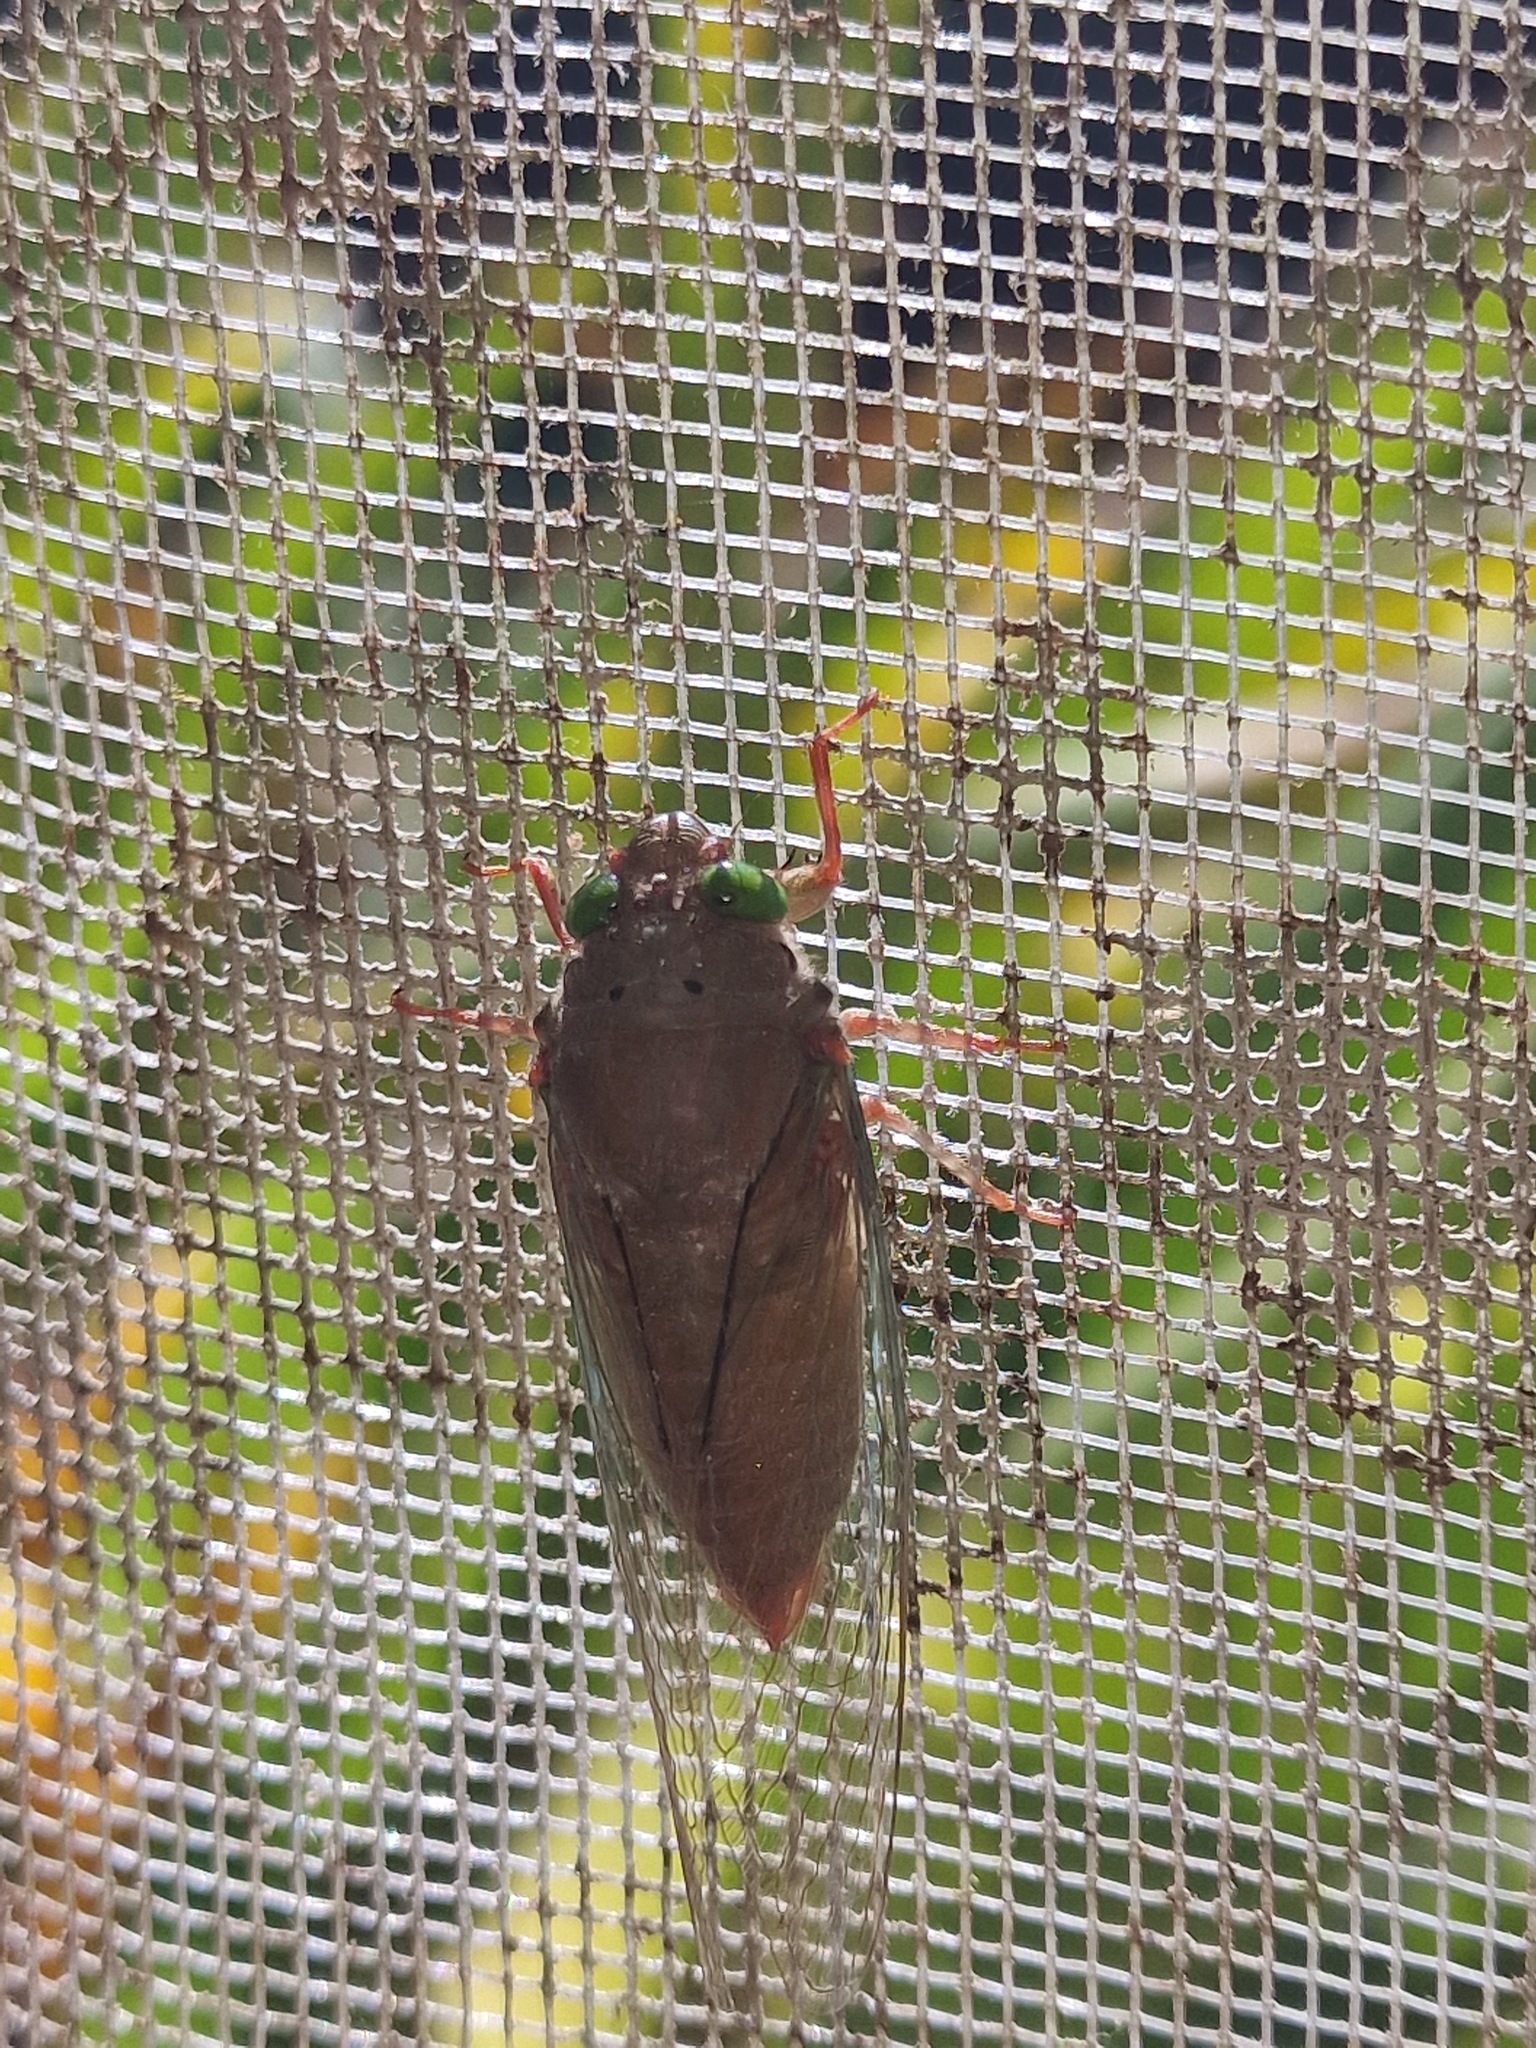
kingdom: Animalia
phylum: Arthropoda
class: Insecta
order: Hemiptera
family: Cicadidae
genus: Carineta
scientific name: Carineta rufescens
